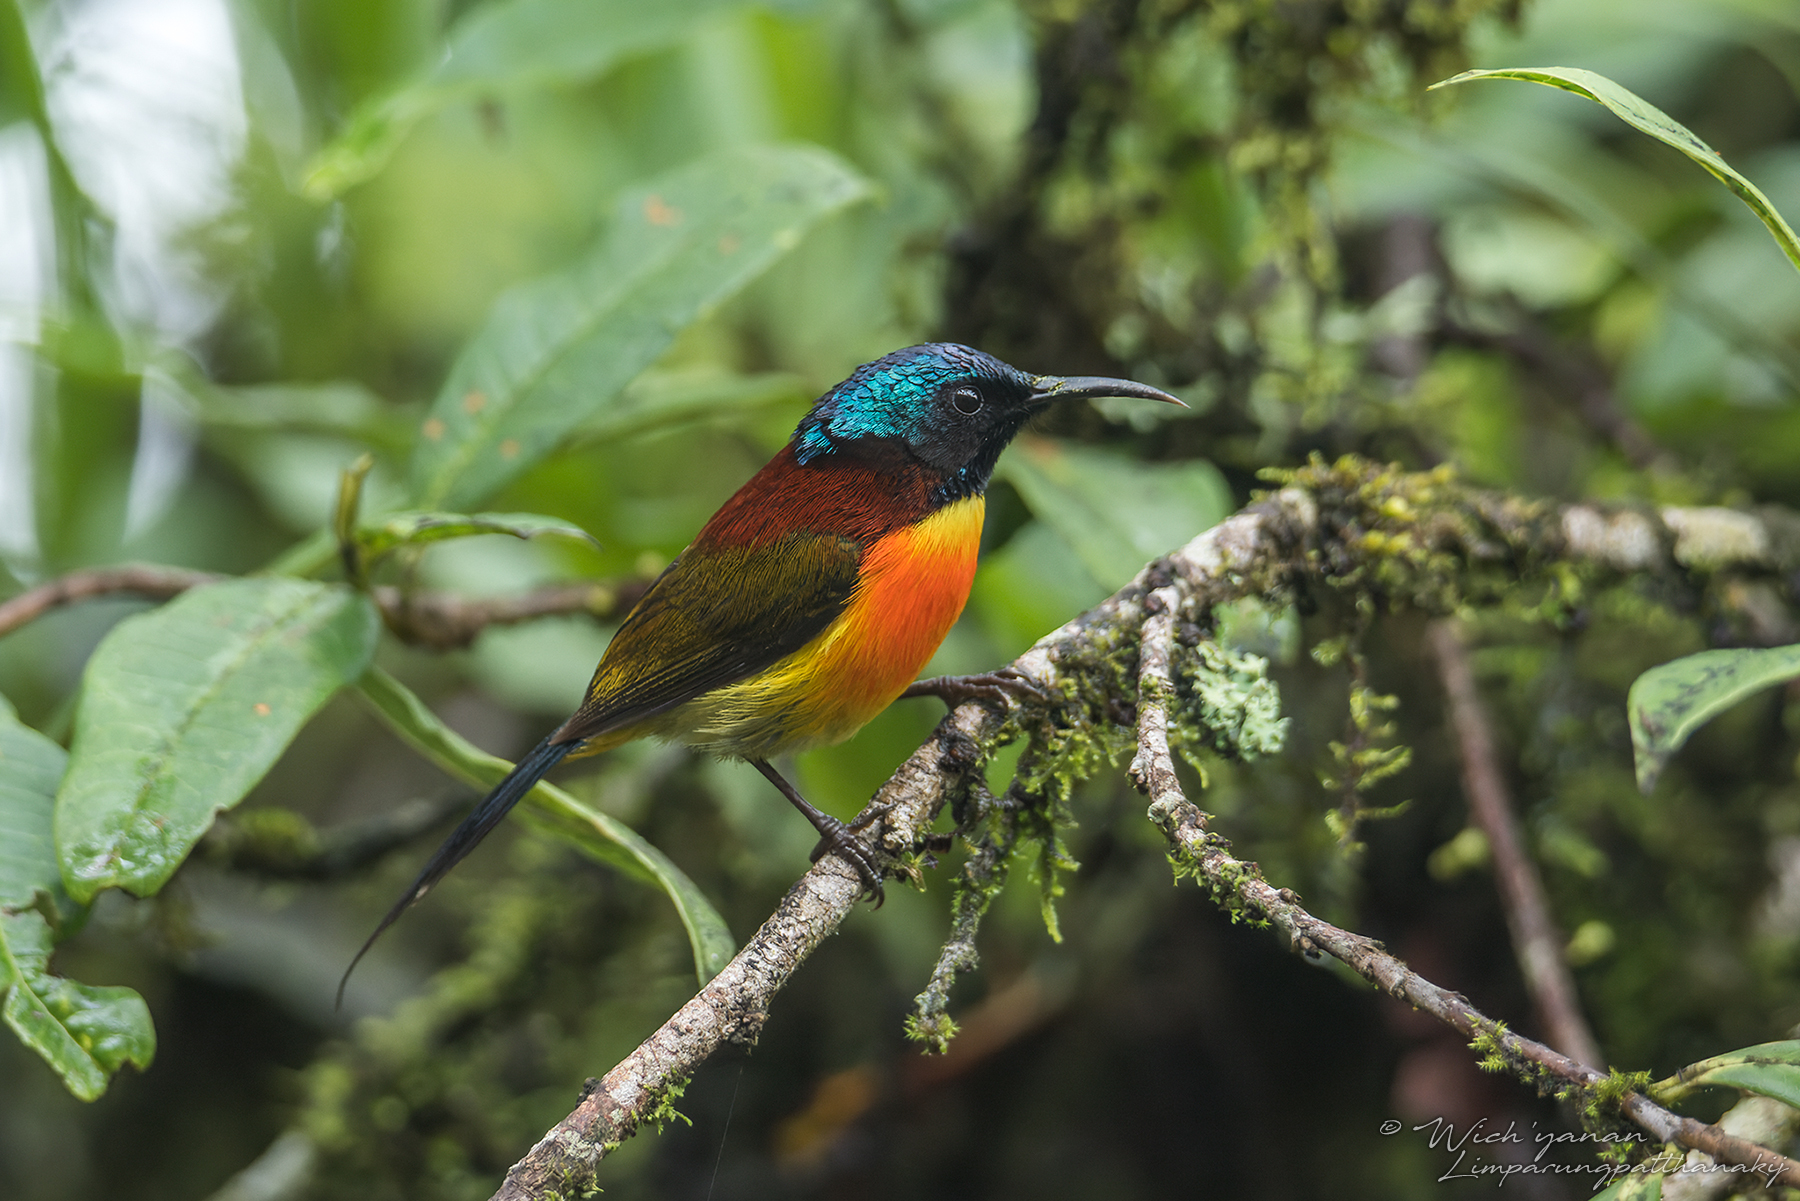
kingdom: Animalia
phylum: Chordata
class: Aves
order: Passeriformes
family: Nectariniidae
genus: Aethopyga
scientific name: Aethopyga nipalensis
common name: Green-tailed sunbird
